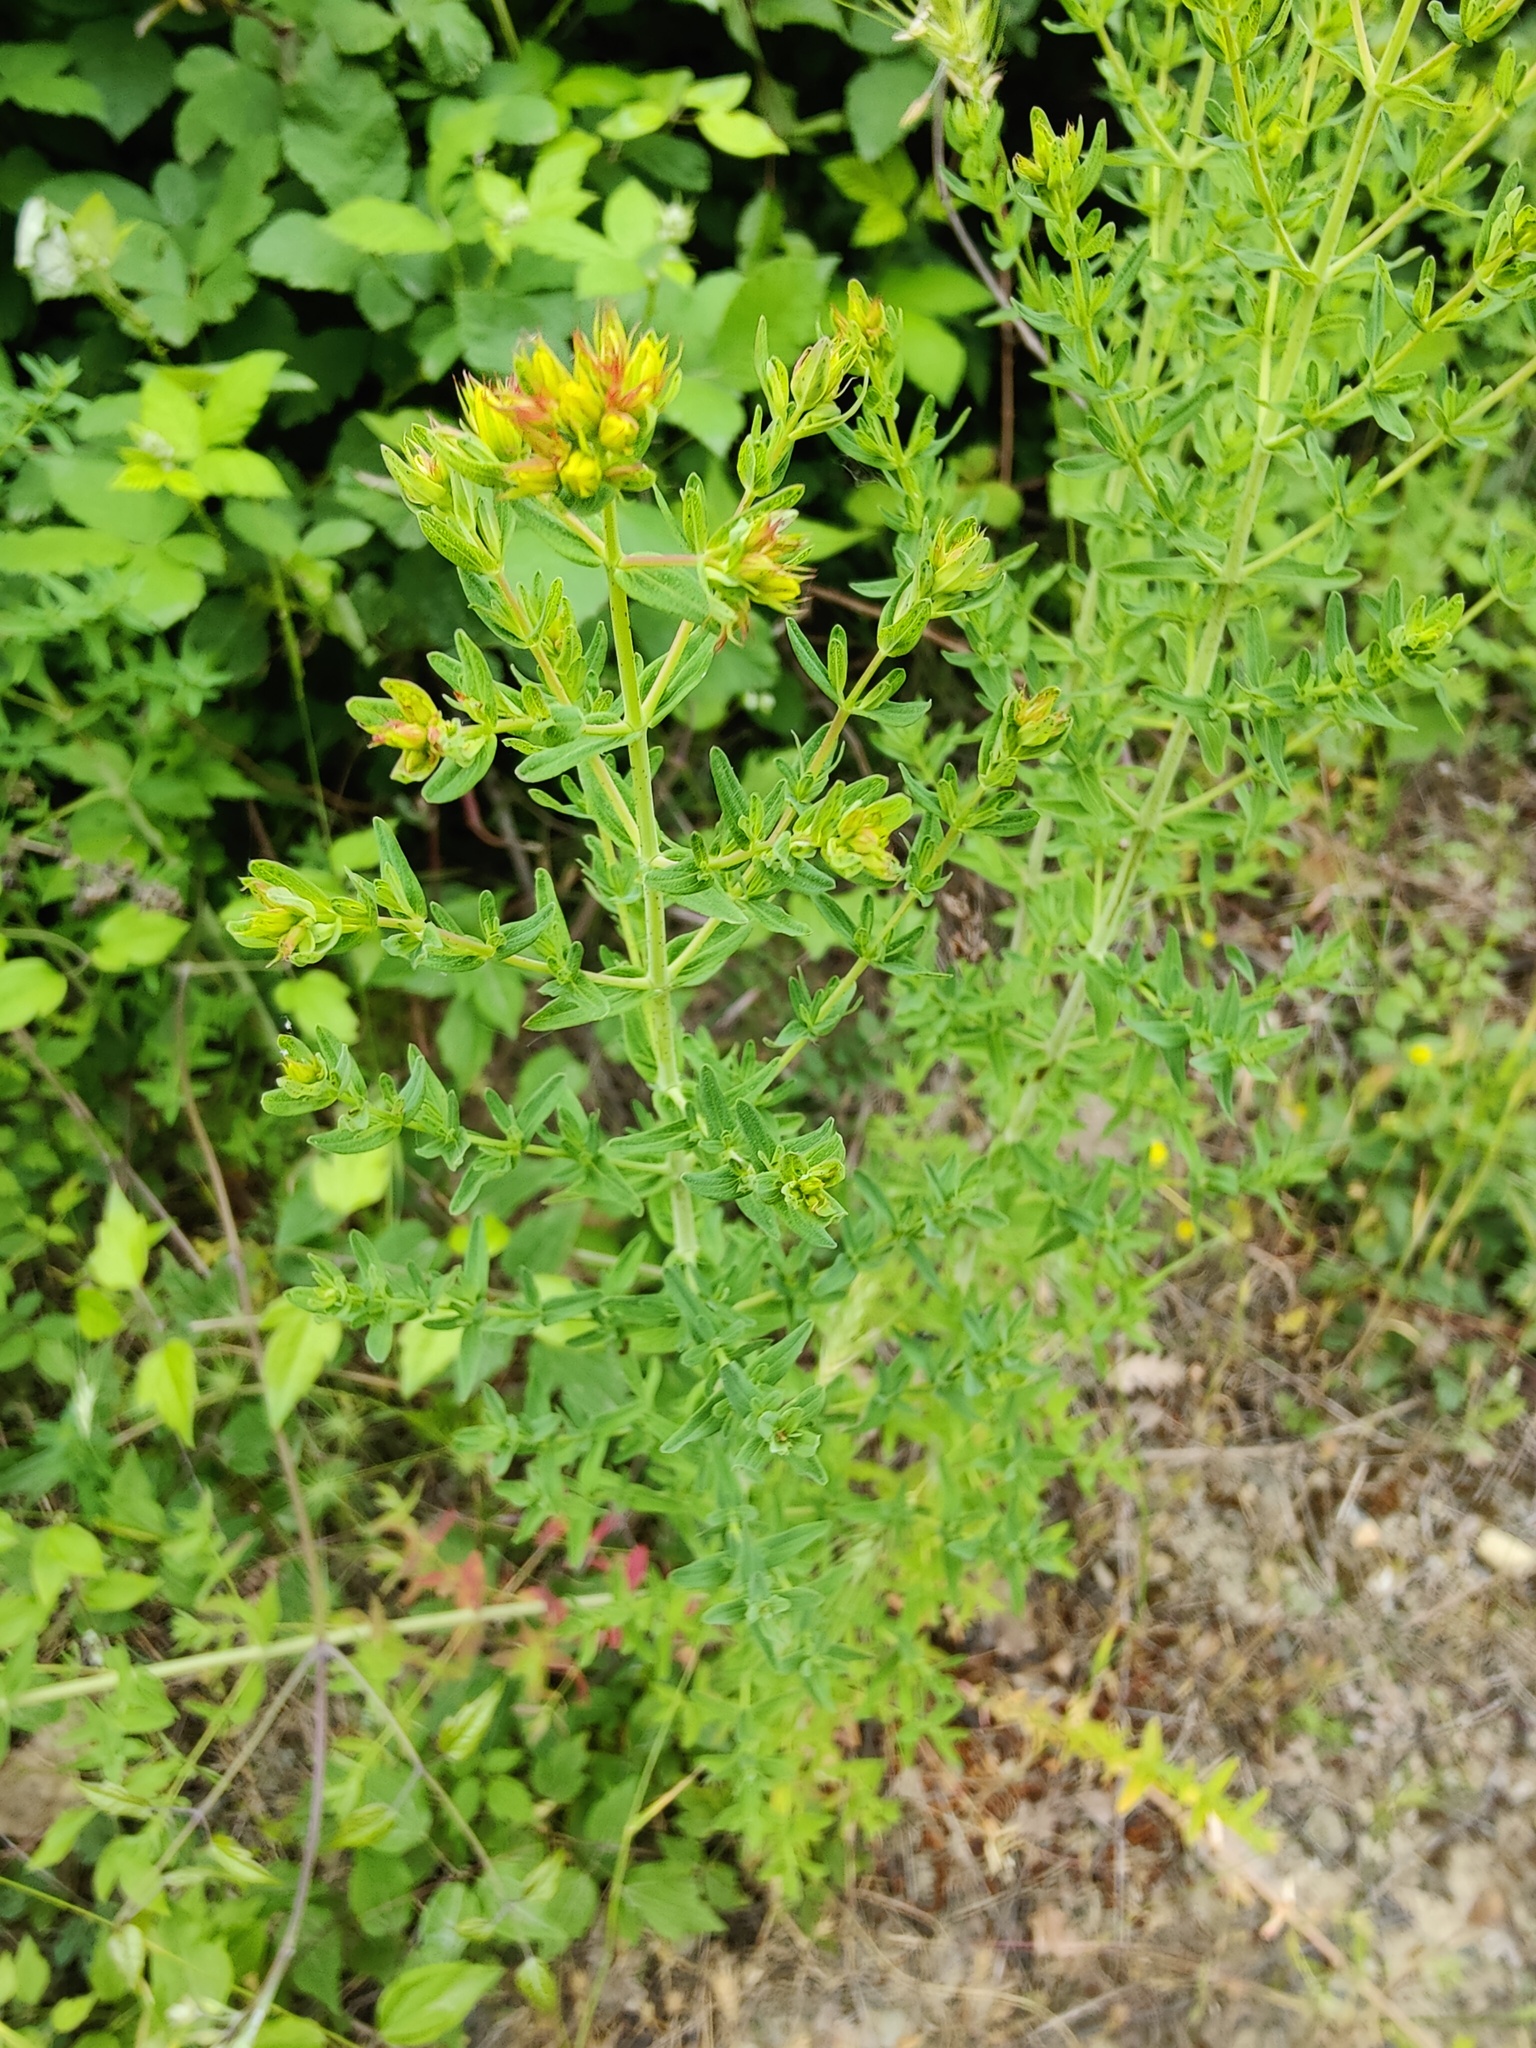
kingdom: Plantae
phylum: Tracheophyta
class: Magnoliopsida
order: Malpighiales
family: Hypericaceae
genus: Hypericum
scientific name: Hypericum perforatum
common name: Common st. johnswort
